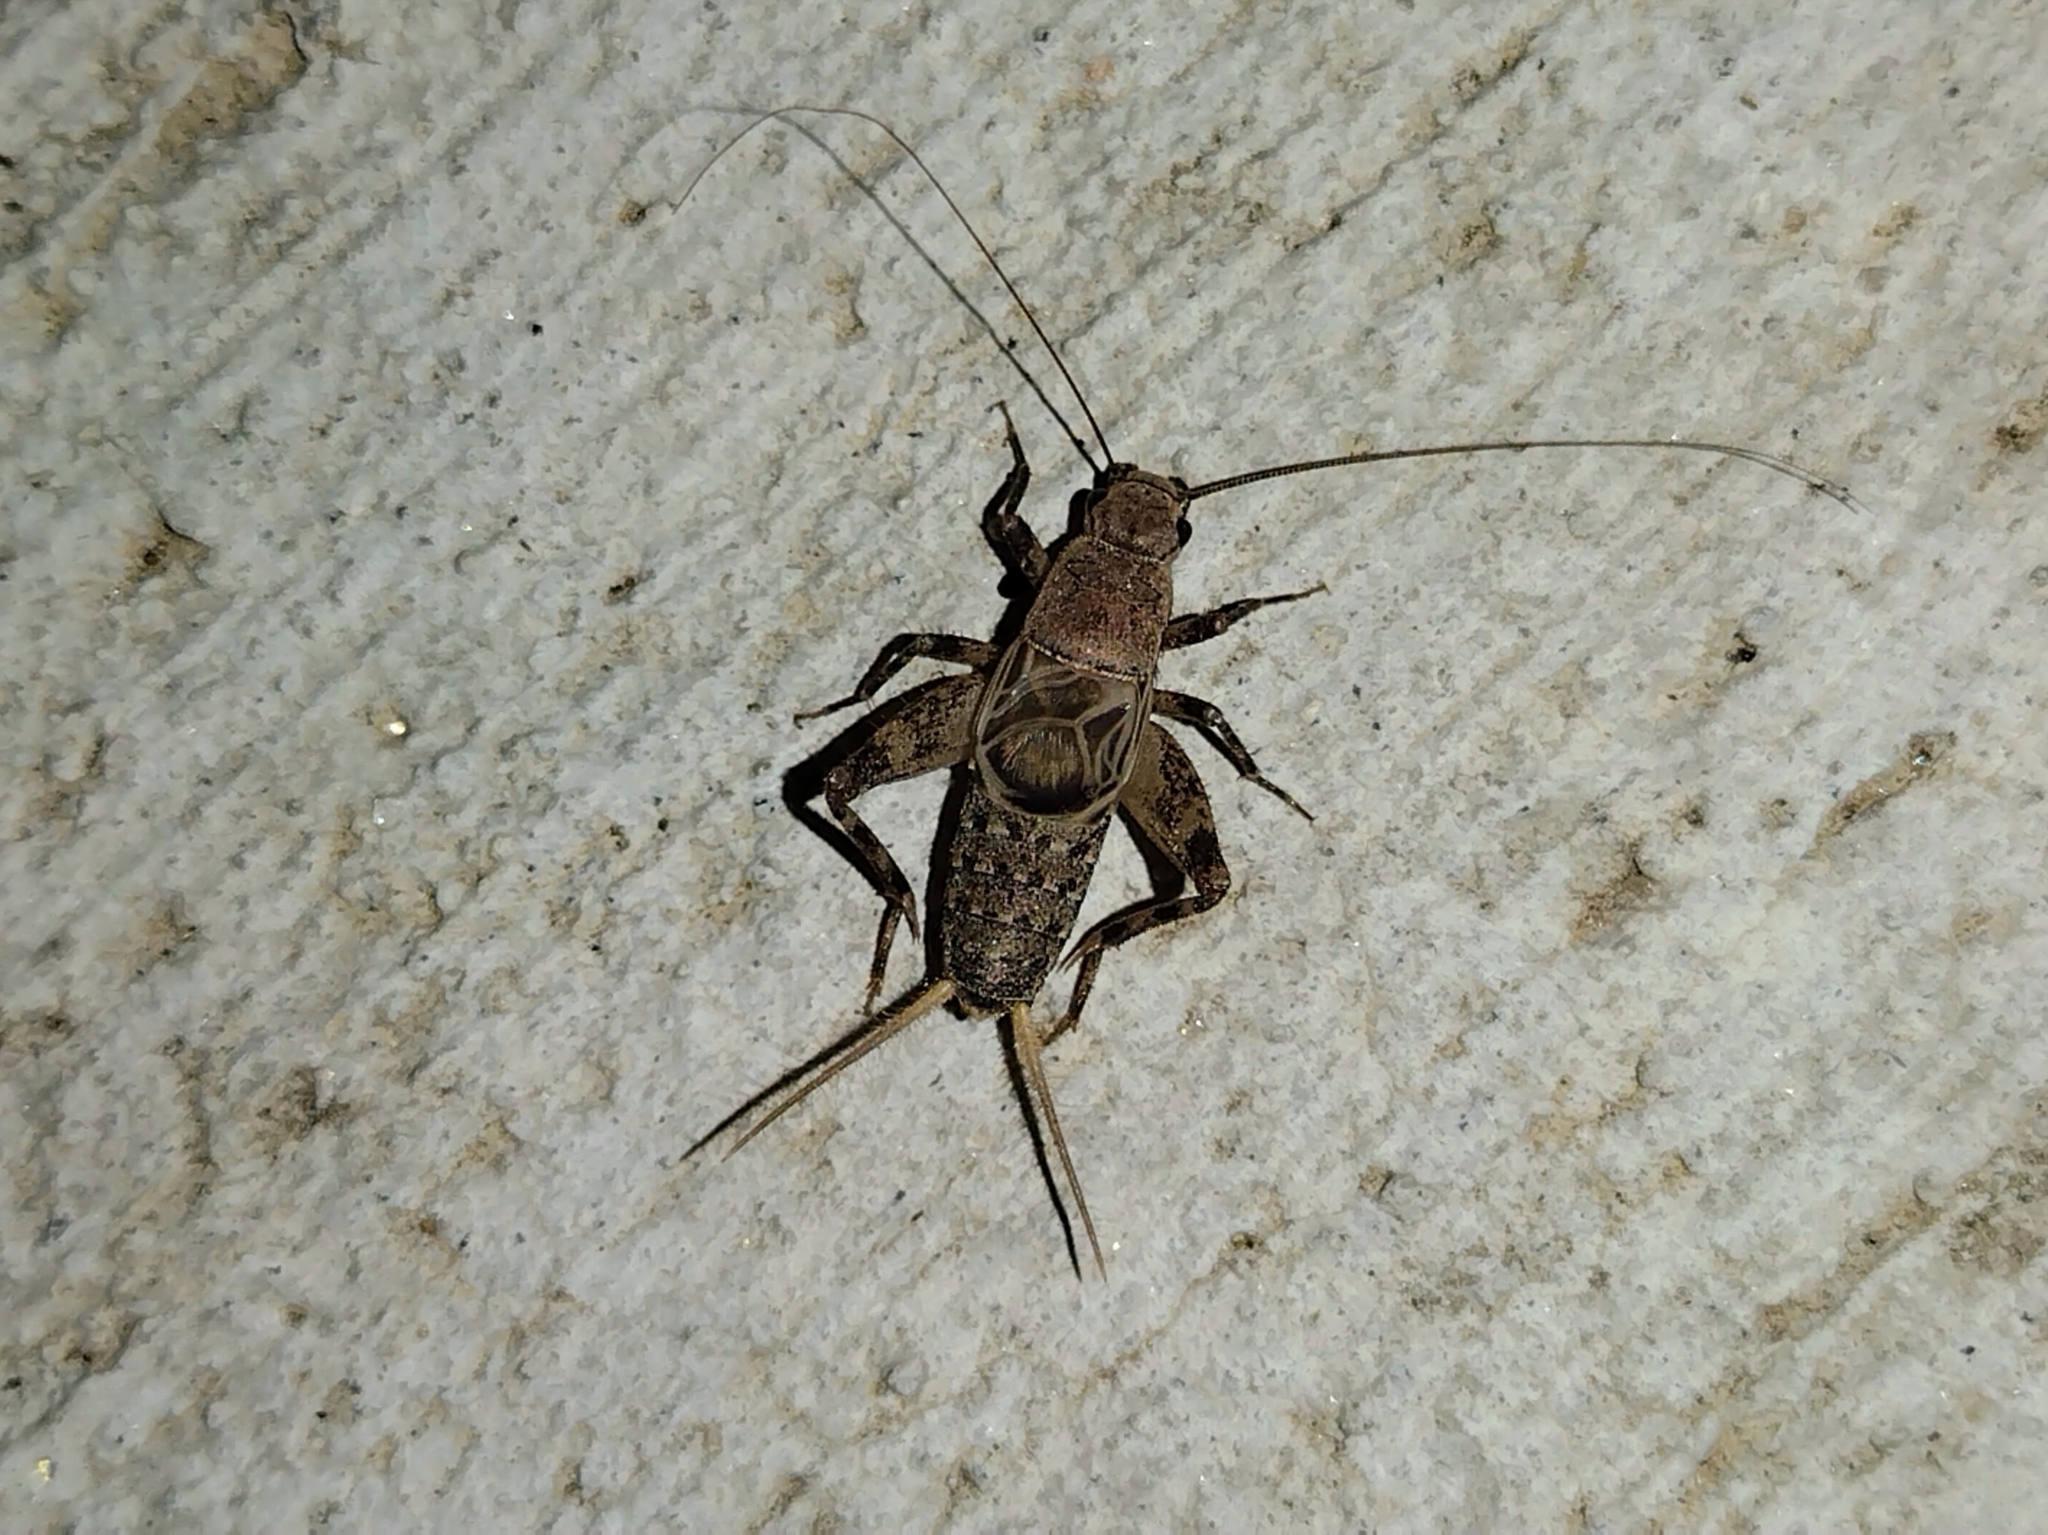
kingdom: Animalia
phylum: Arthropoda
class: Insecta
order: Orthoptera
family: Mogoplistidae
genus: Hoplosphyrum
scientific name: Hoplosphyrum boreale
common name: Long-winged scaly cricket
